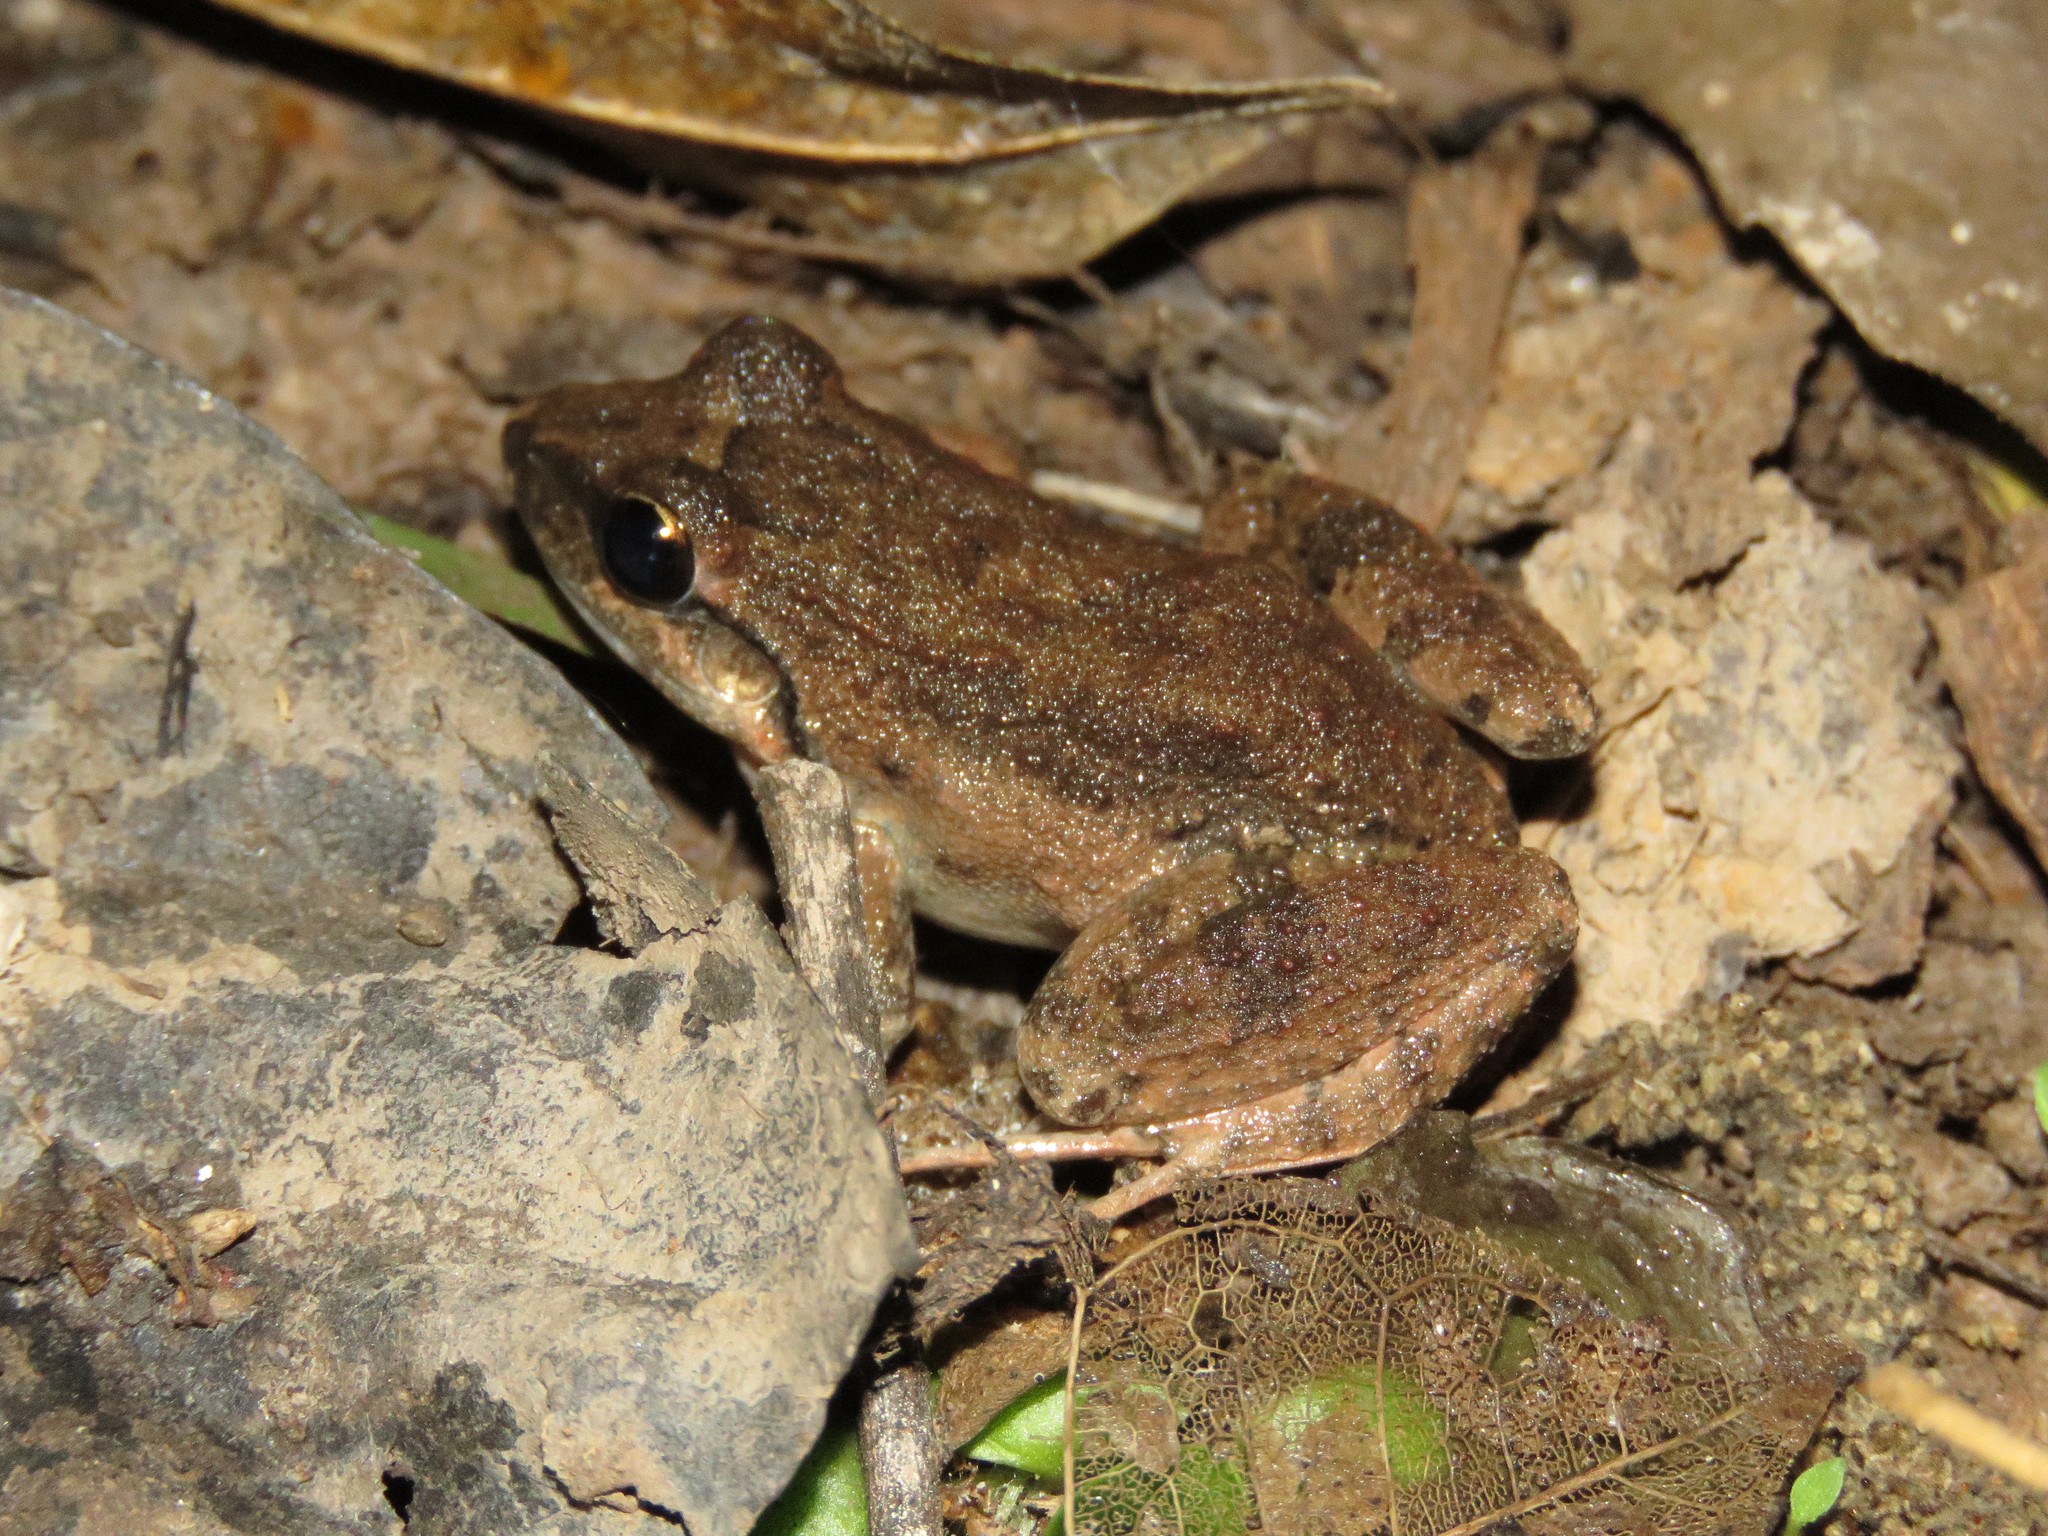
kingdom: Animalia
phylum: Chordata
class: Amphibia
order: Anura
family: Leptodactylidae
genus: Leptodactylus
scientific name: Leptodactylus leptodactyloides
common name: Common thin-toed frog
